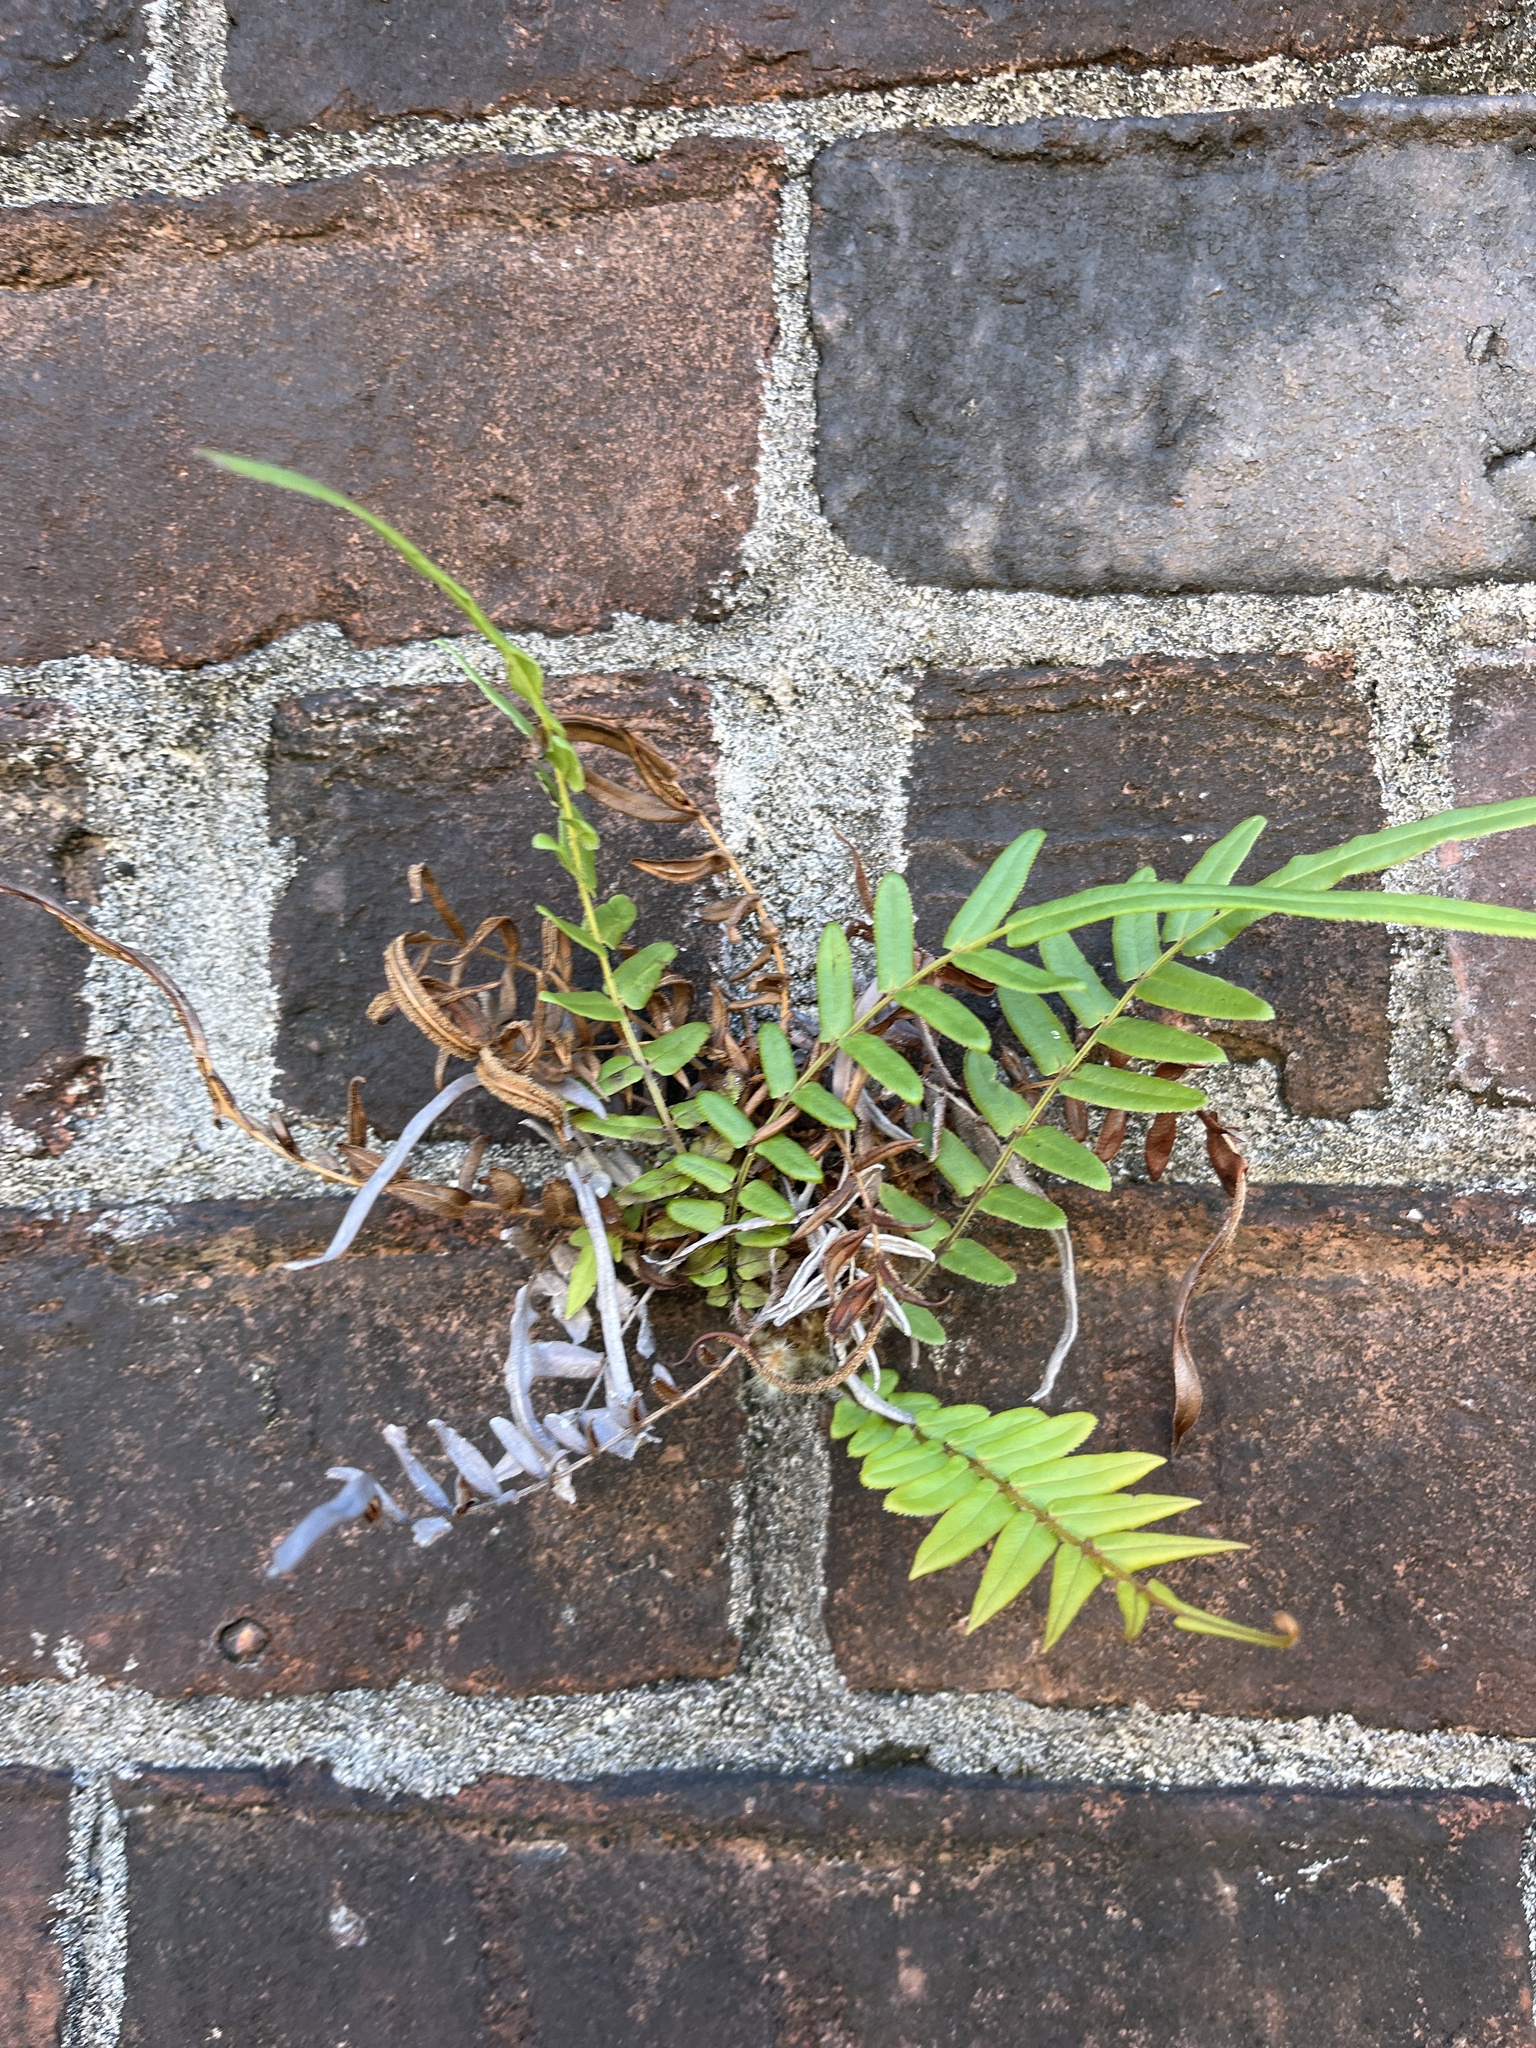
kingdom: Plantae
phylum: Tracheophyta
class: Polypodiopsida
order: Polypodiales
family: Pteridaceae
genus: Pteris
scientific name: Pteris vittata
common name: Ladder brake
